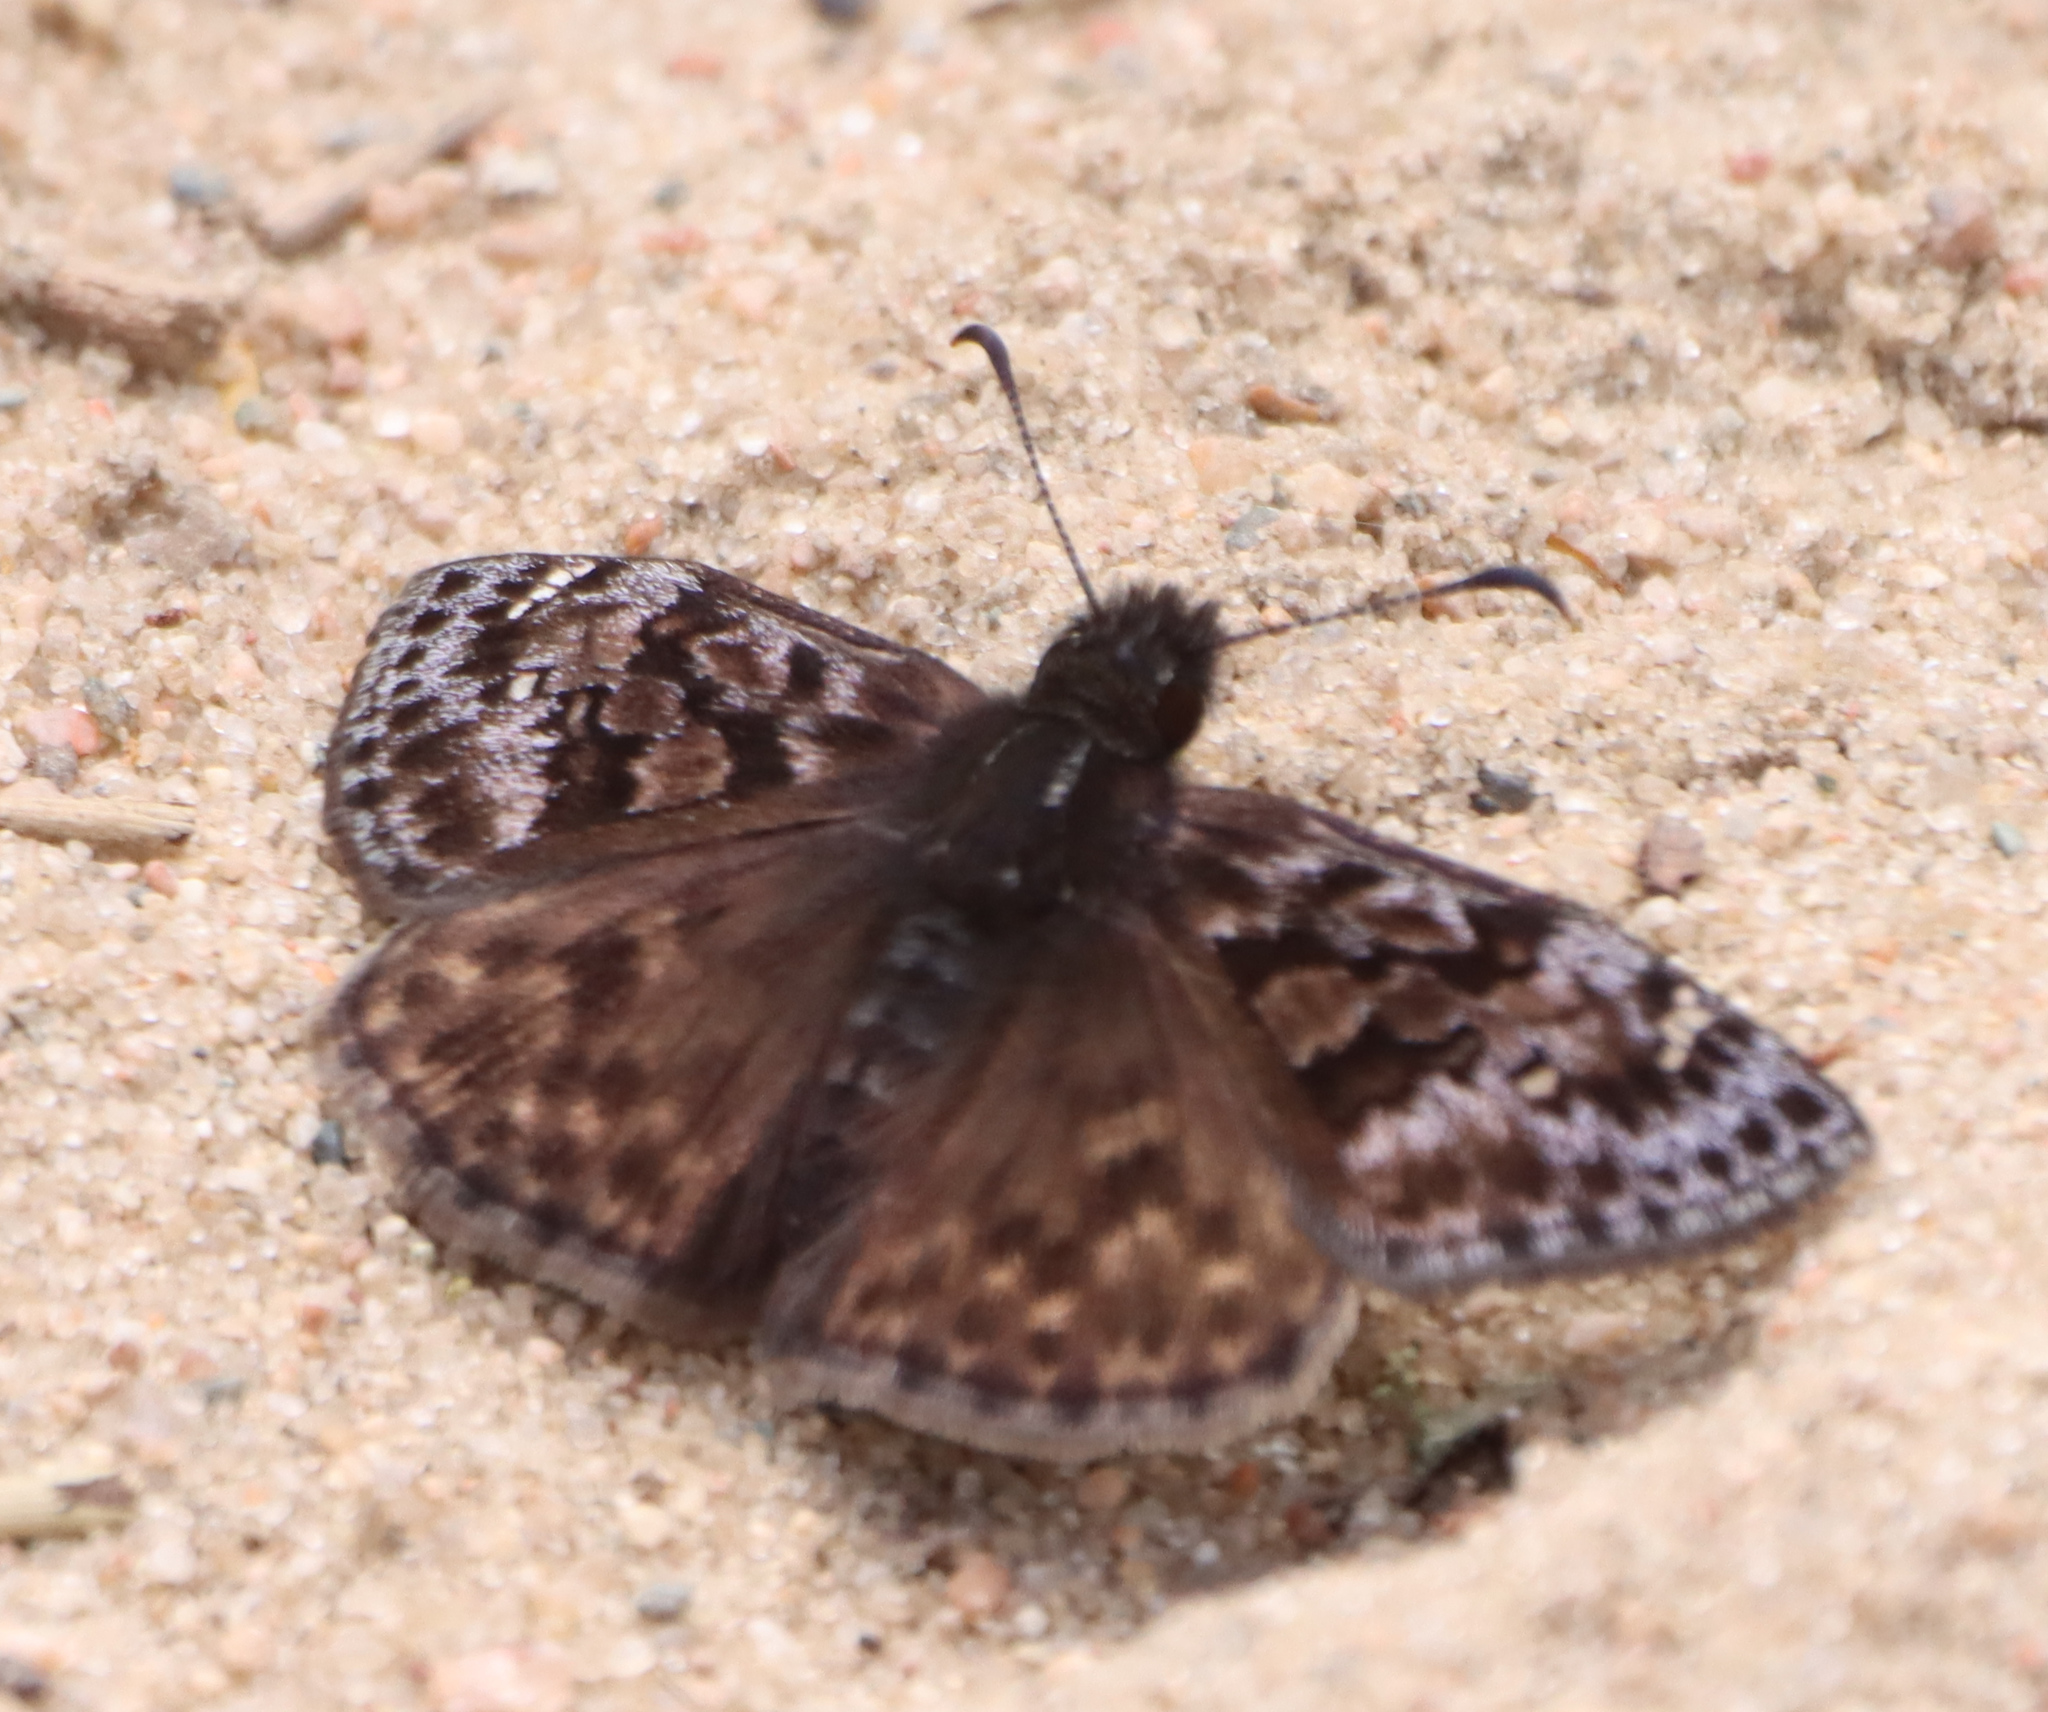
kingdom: Animalia
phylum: Arthropoda
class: Insecta
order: Lepidoptera
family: Hesperiidae
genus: Erynnis
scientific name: Erynnis martialis
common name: Mottled duskywing
